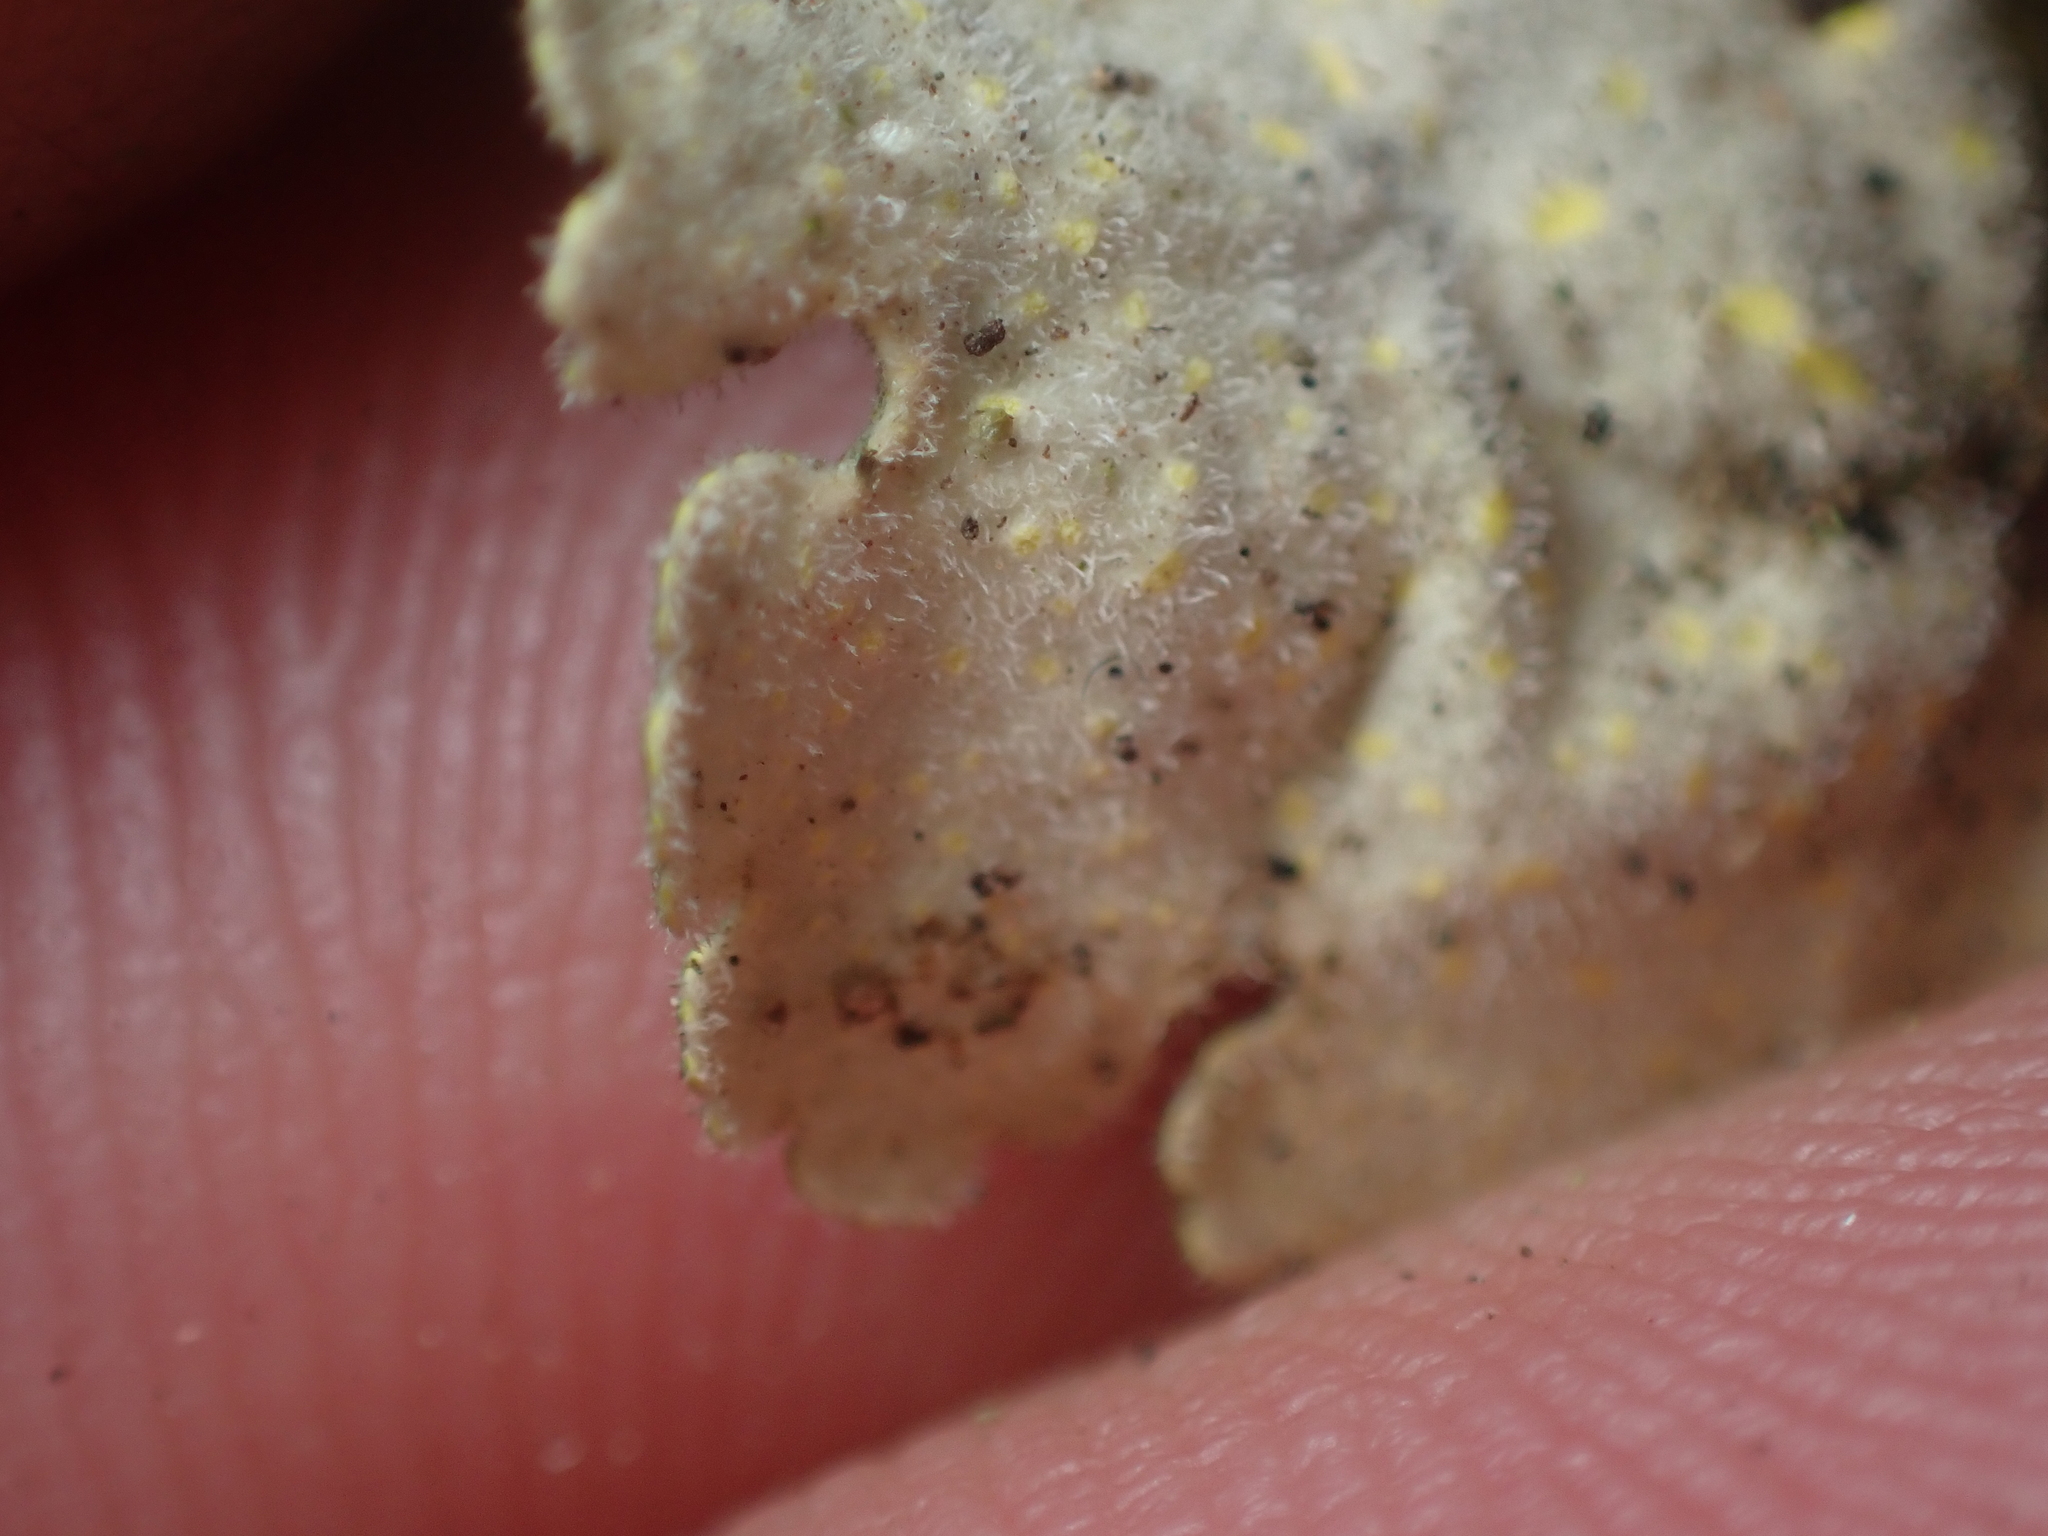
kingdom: Fungi
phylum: Ascomycota
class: Lecanoromycetes
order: Peltigerales
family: Lobariaceae
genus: Pseudocyphellaria
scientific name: Pseudocyphellaria aurata
